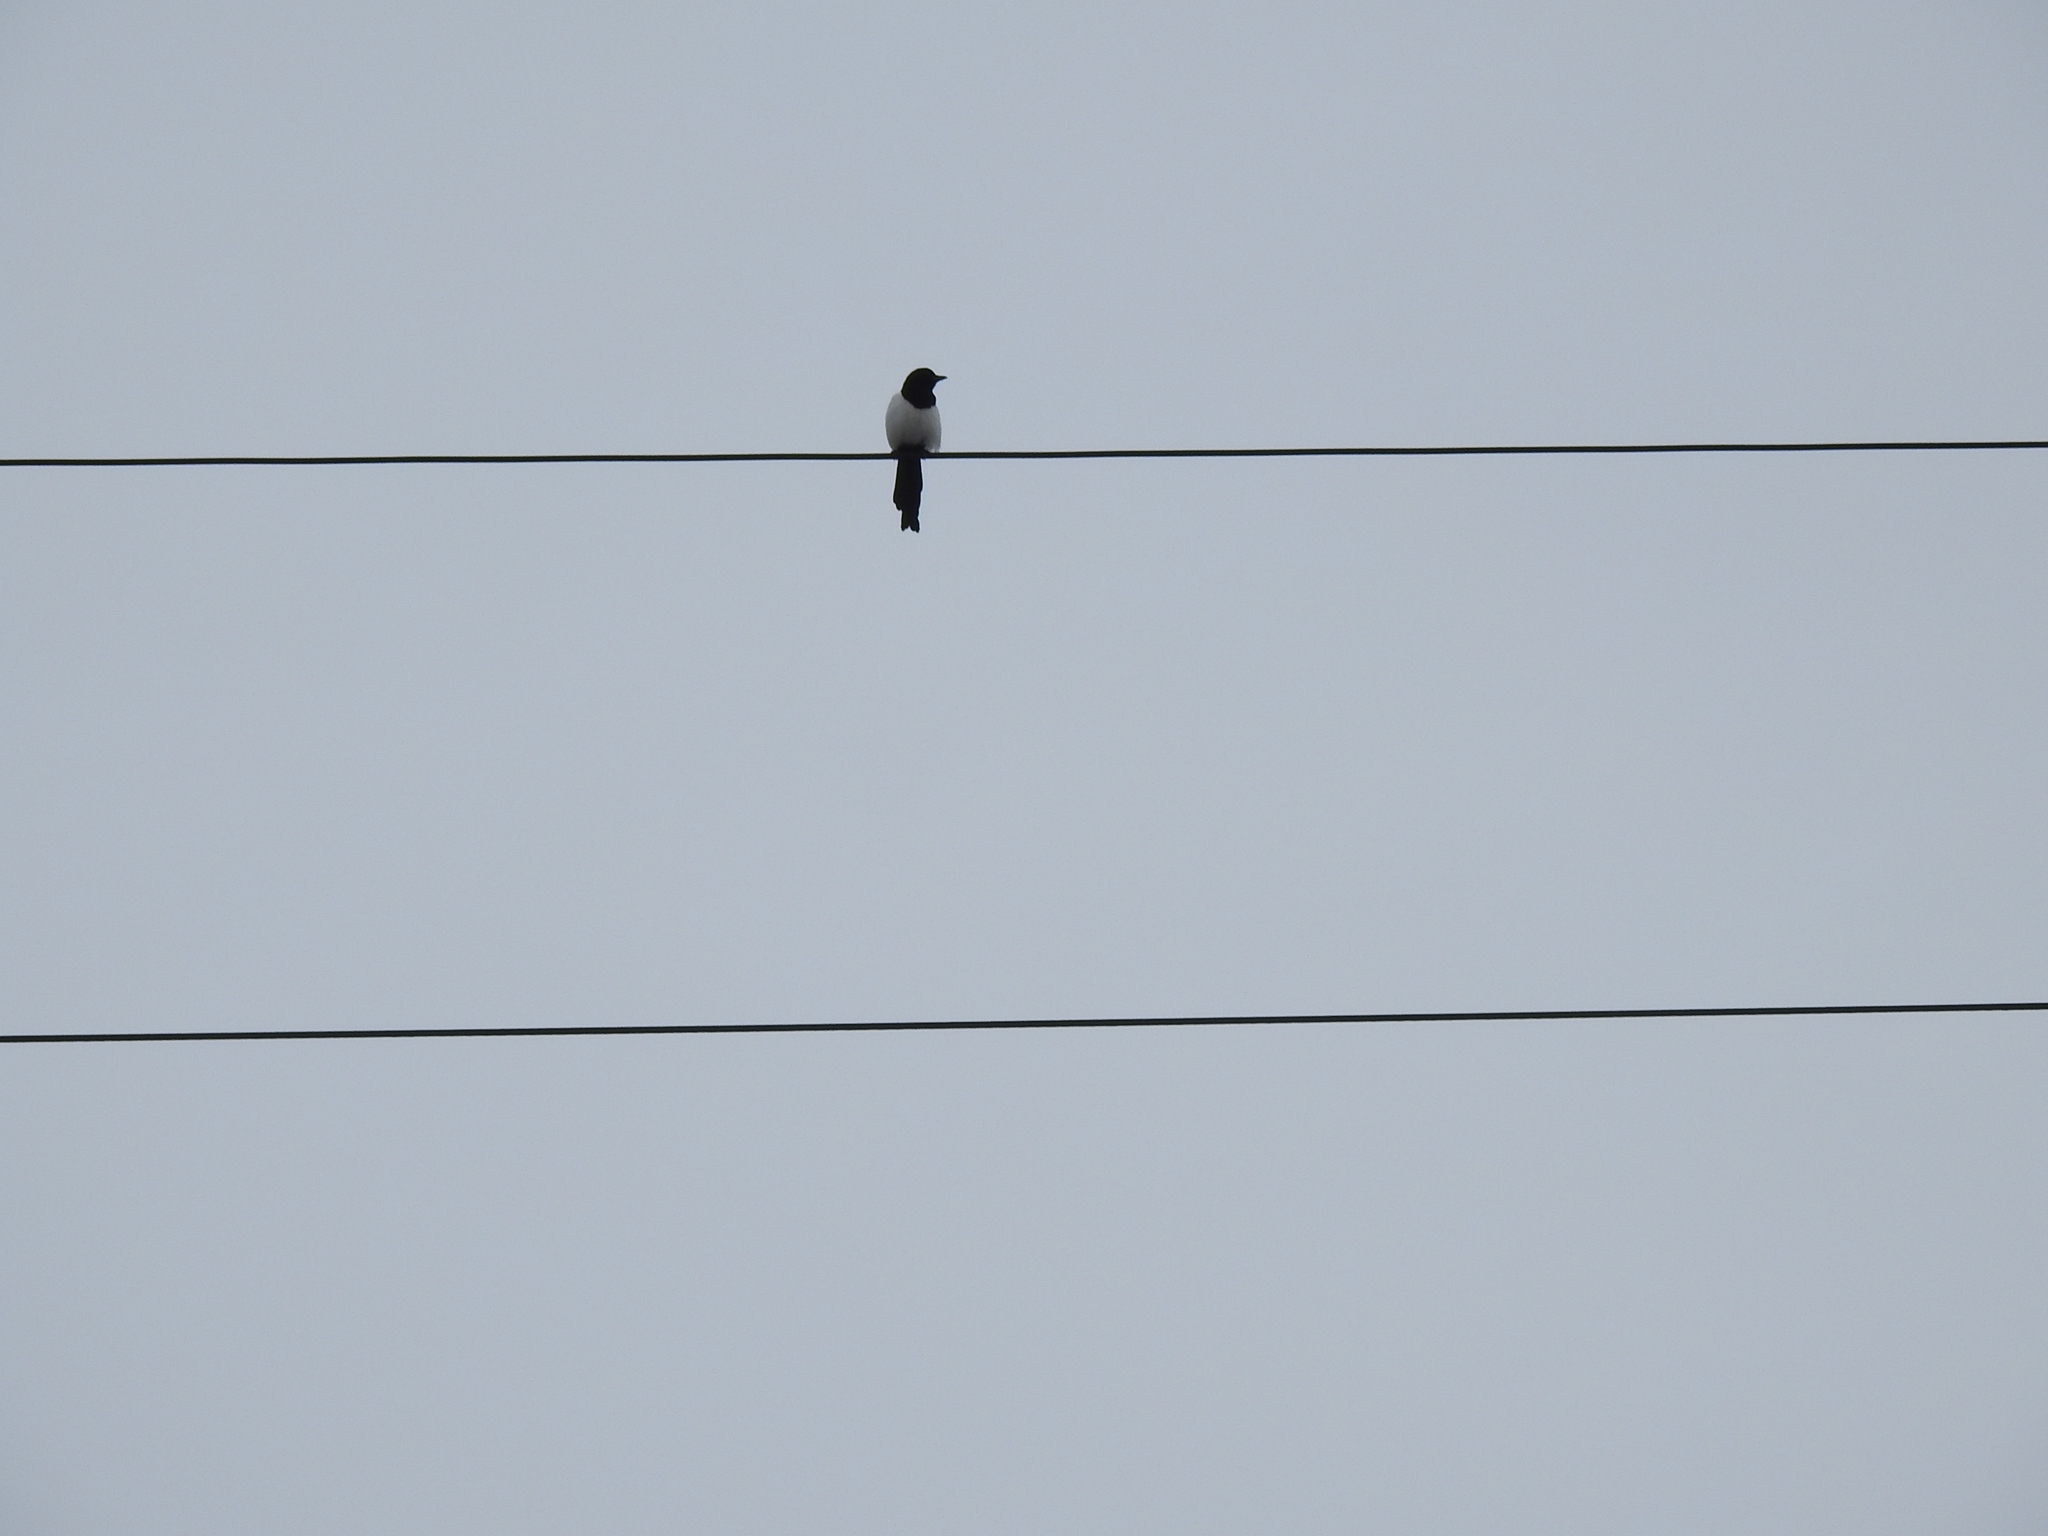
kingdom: Animalia
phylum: Chordata
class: Aves
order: Passeriformes
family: Corvidae
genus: Pica
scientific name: Pica pica
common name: Eurasian magpie
